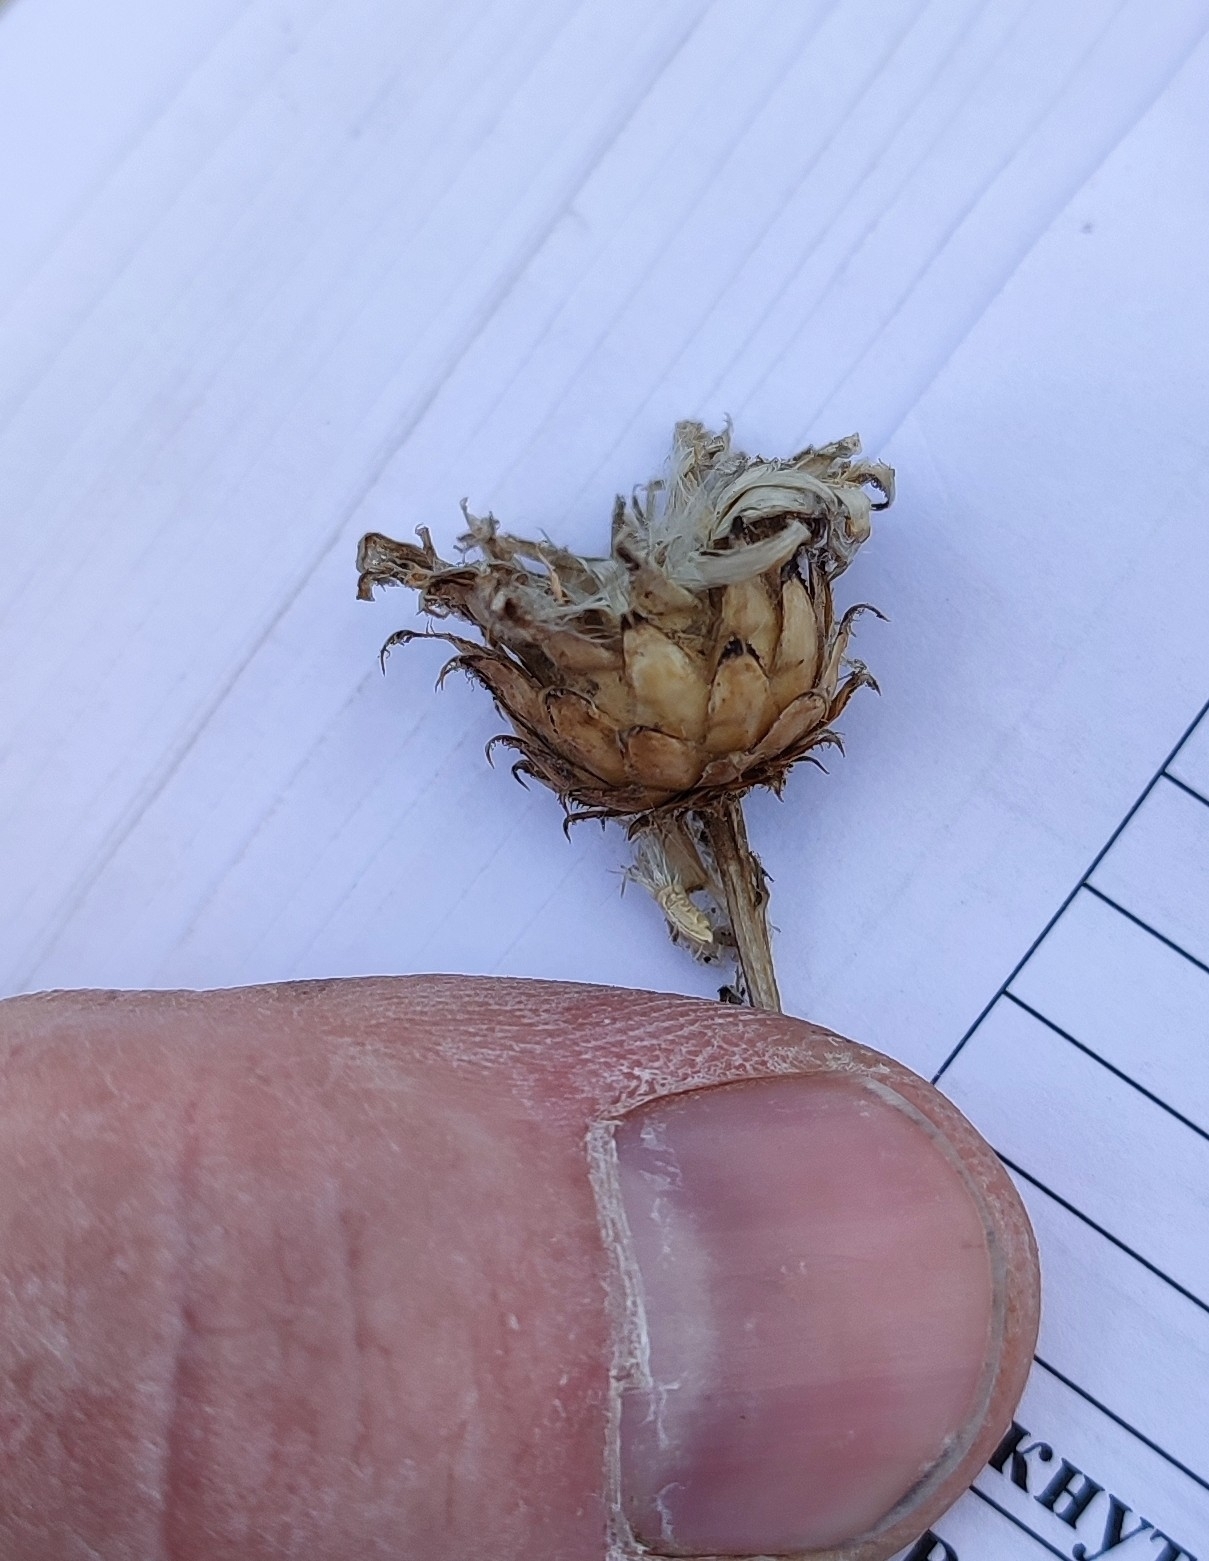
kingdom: Plantae
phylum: Tracheophyta
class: Magnoliopsida
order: Asterales
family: Asteraceae
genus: Centaurea
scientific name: Centaurea scabiosa
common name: Greater knapweed
